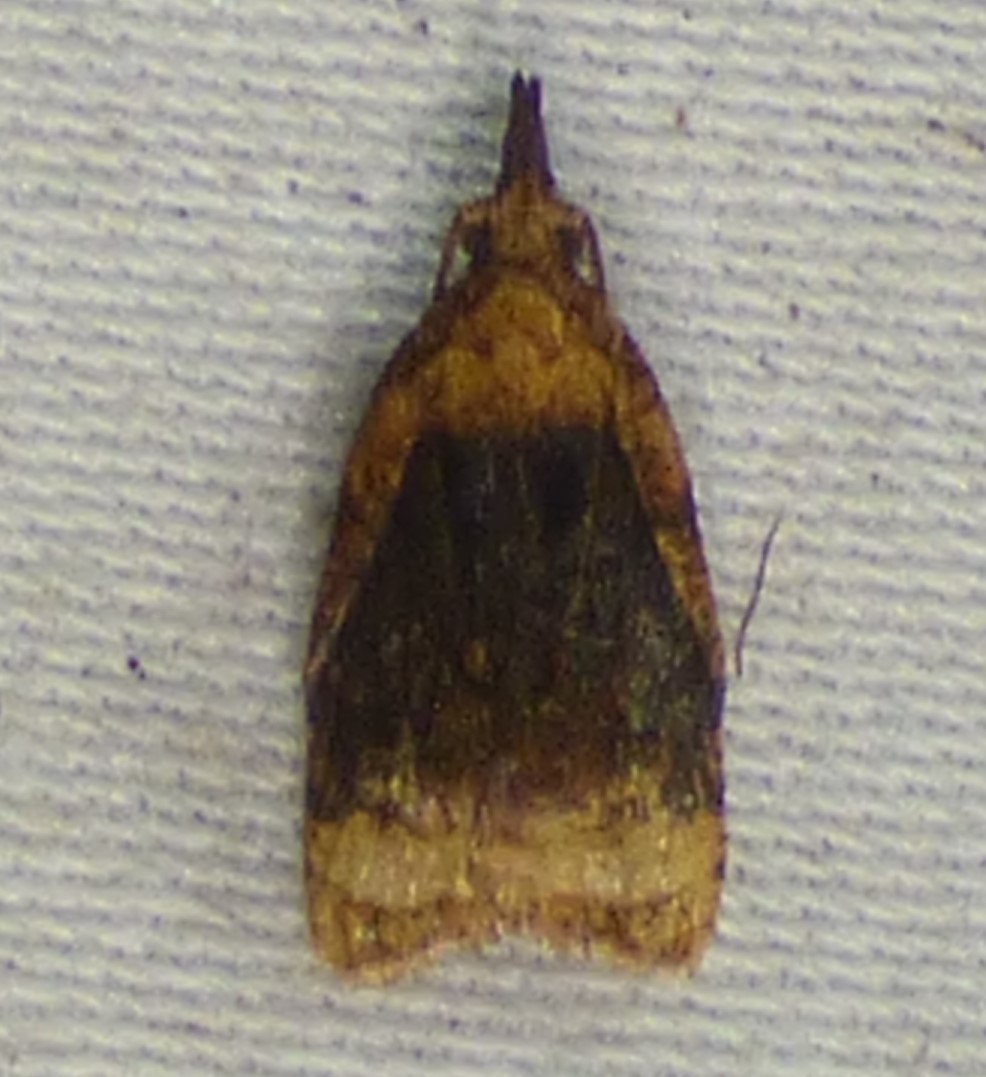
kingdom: Animalia
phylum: Arthropoda
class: Insecta
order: Lepidoptera
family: Tortricidae
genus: Platynota
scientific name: Platynota flavedana
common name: Black-shaded platynota moth
